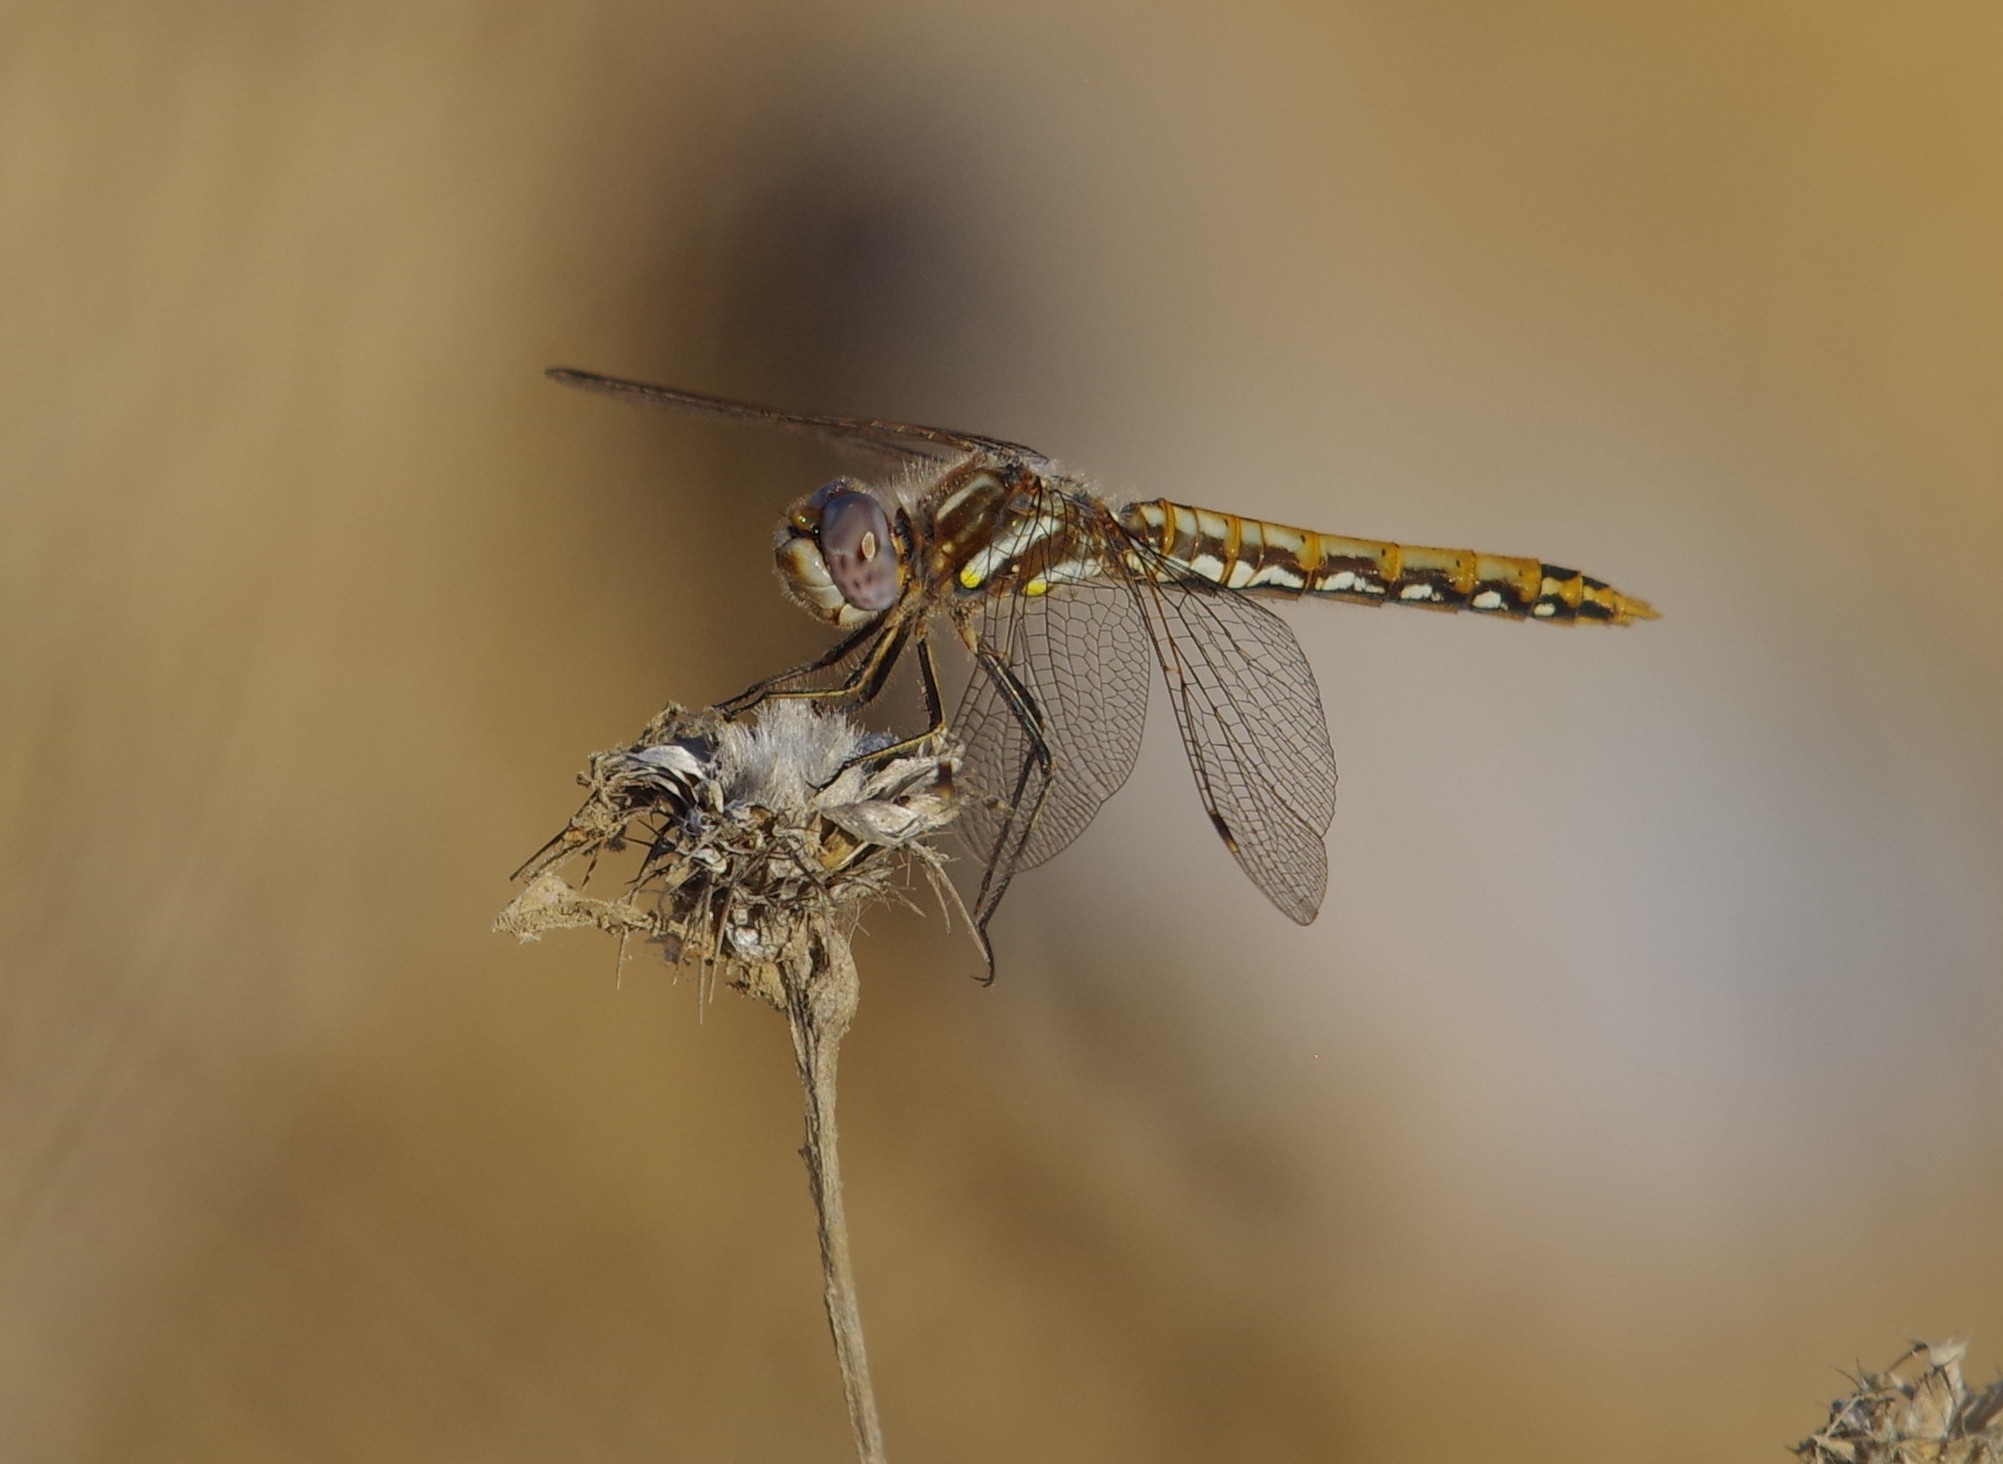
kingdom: Animalia
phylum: Arthropoda
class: Insecta
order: Odonata
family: Libellulidae
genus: Sympetrum
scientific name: Sympetrum corruptum
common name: Variegated meadowhawk
